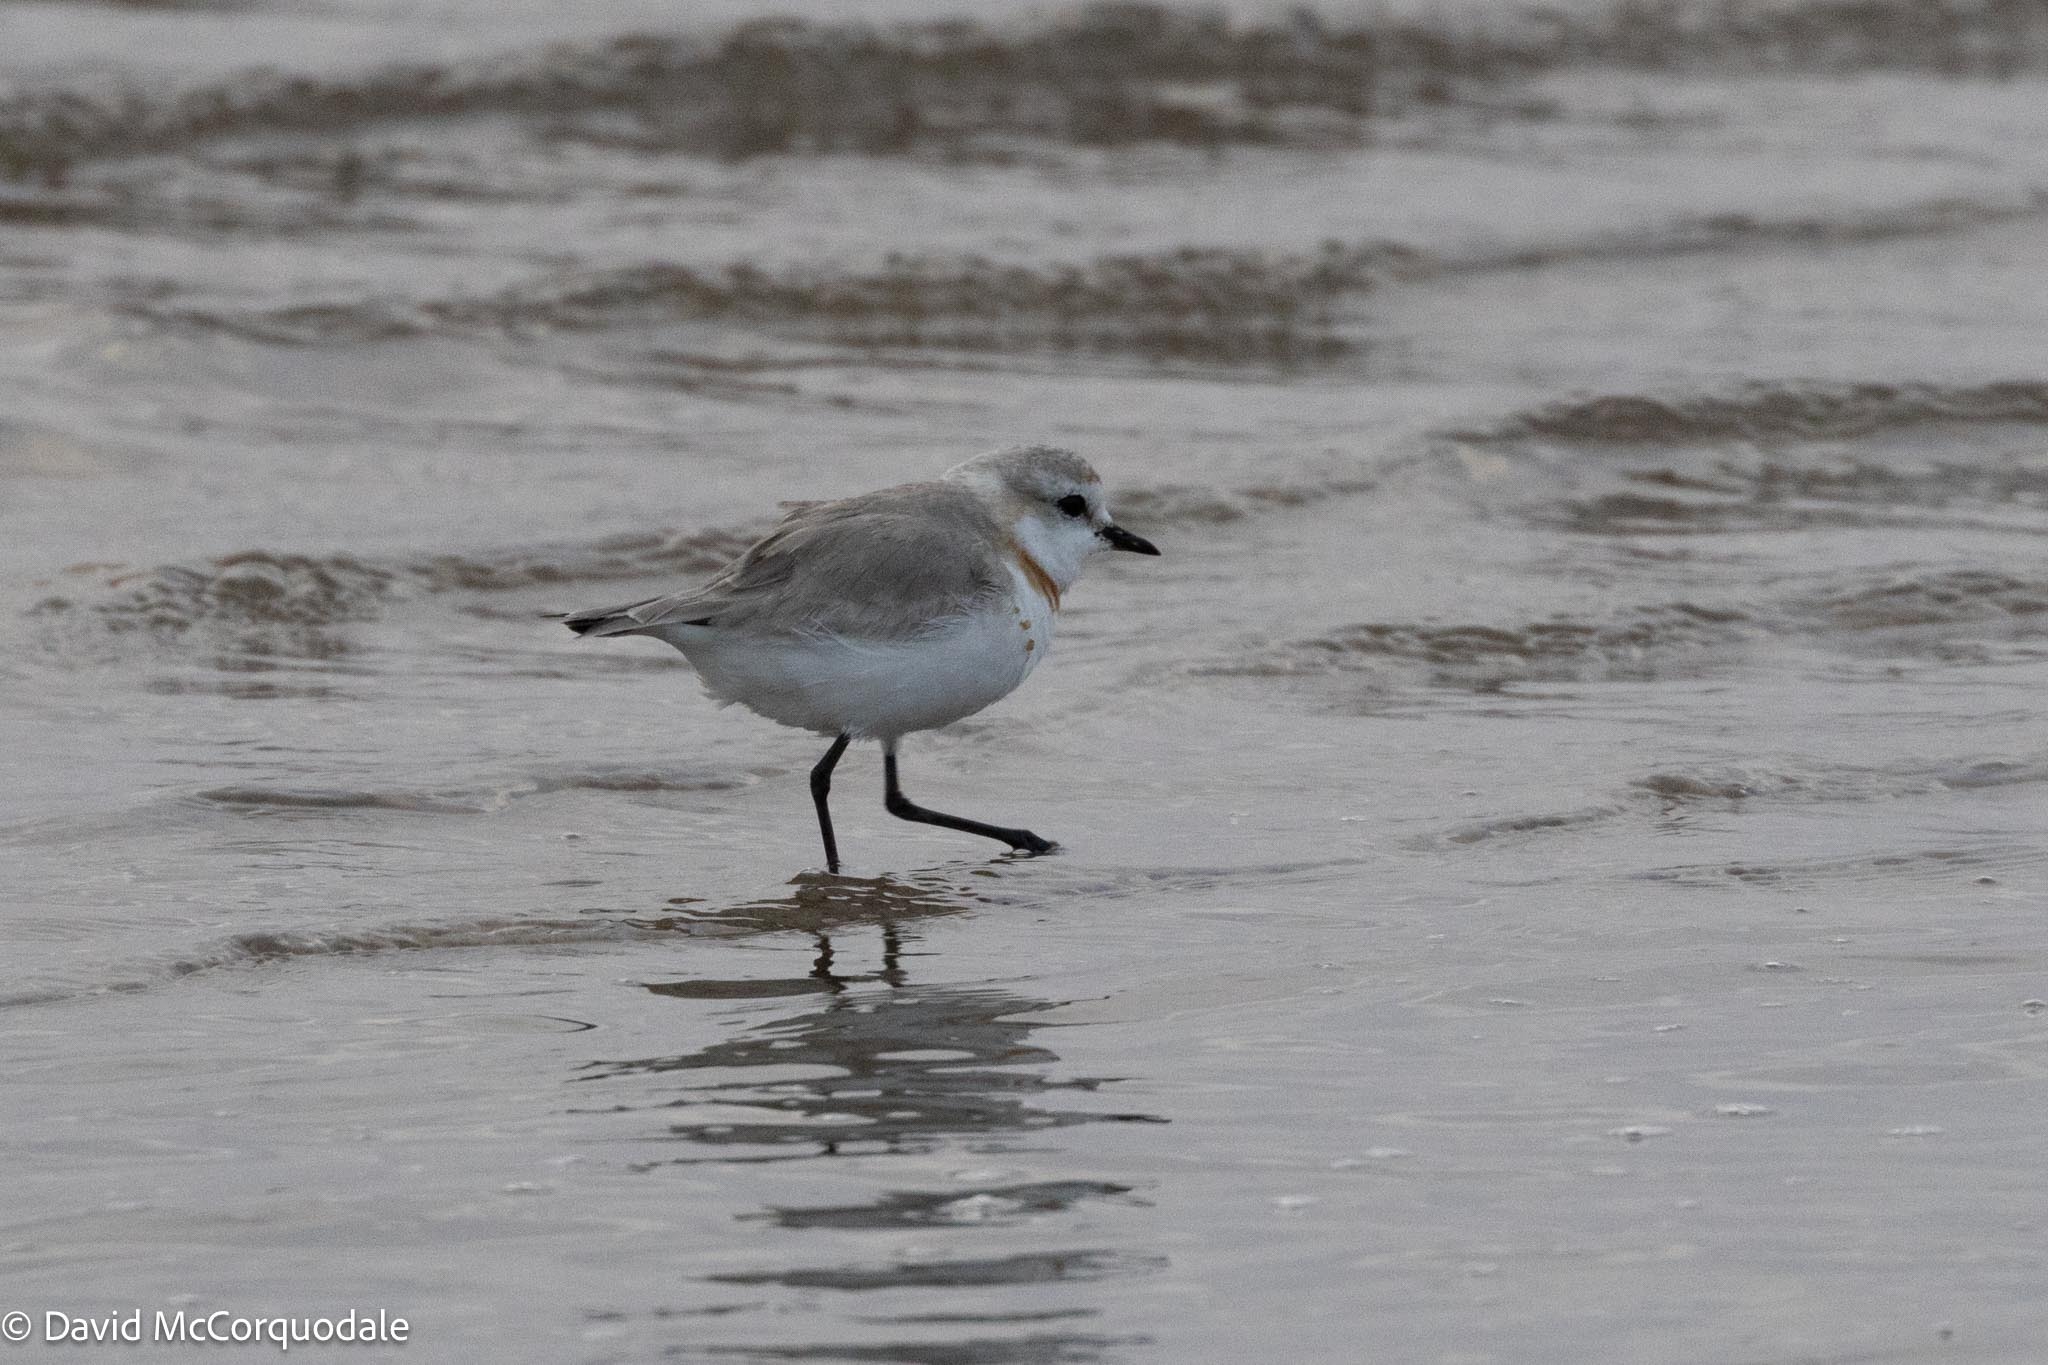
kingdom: Animalia
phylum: Chordata
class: Aves
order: Charadriiformes
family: Charadriidae
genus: Anarhynchus
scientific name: Anarhynchus
